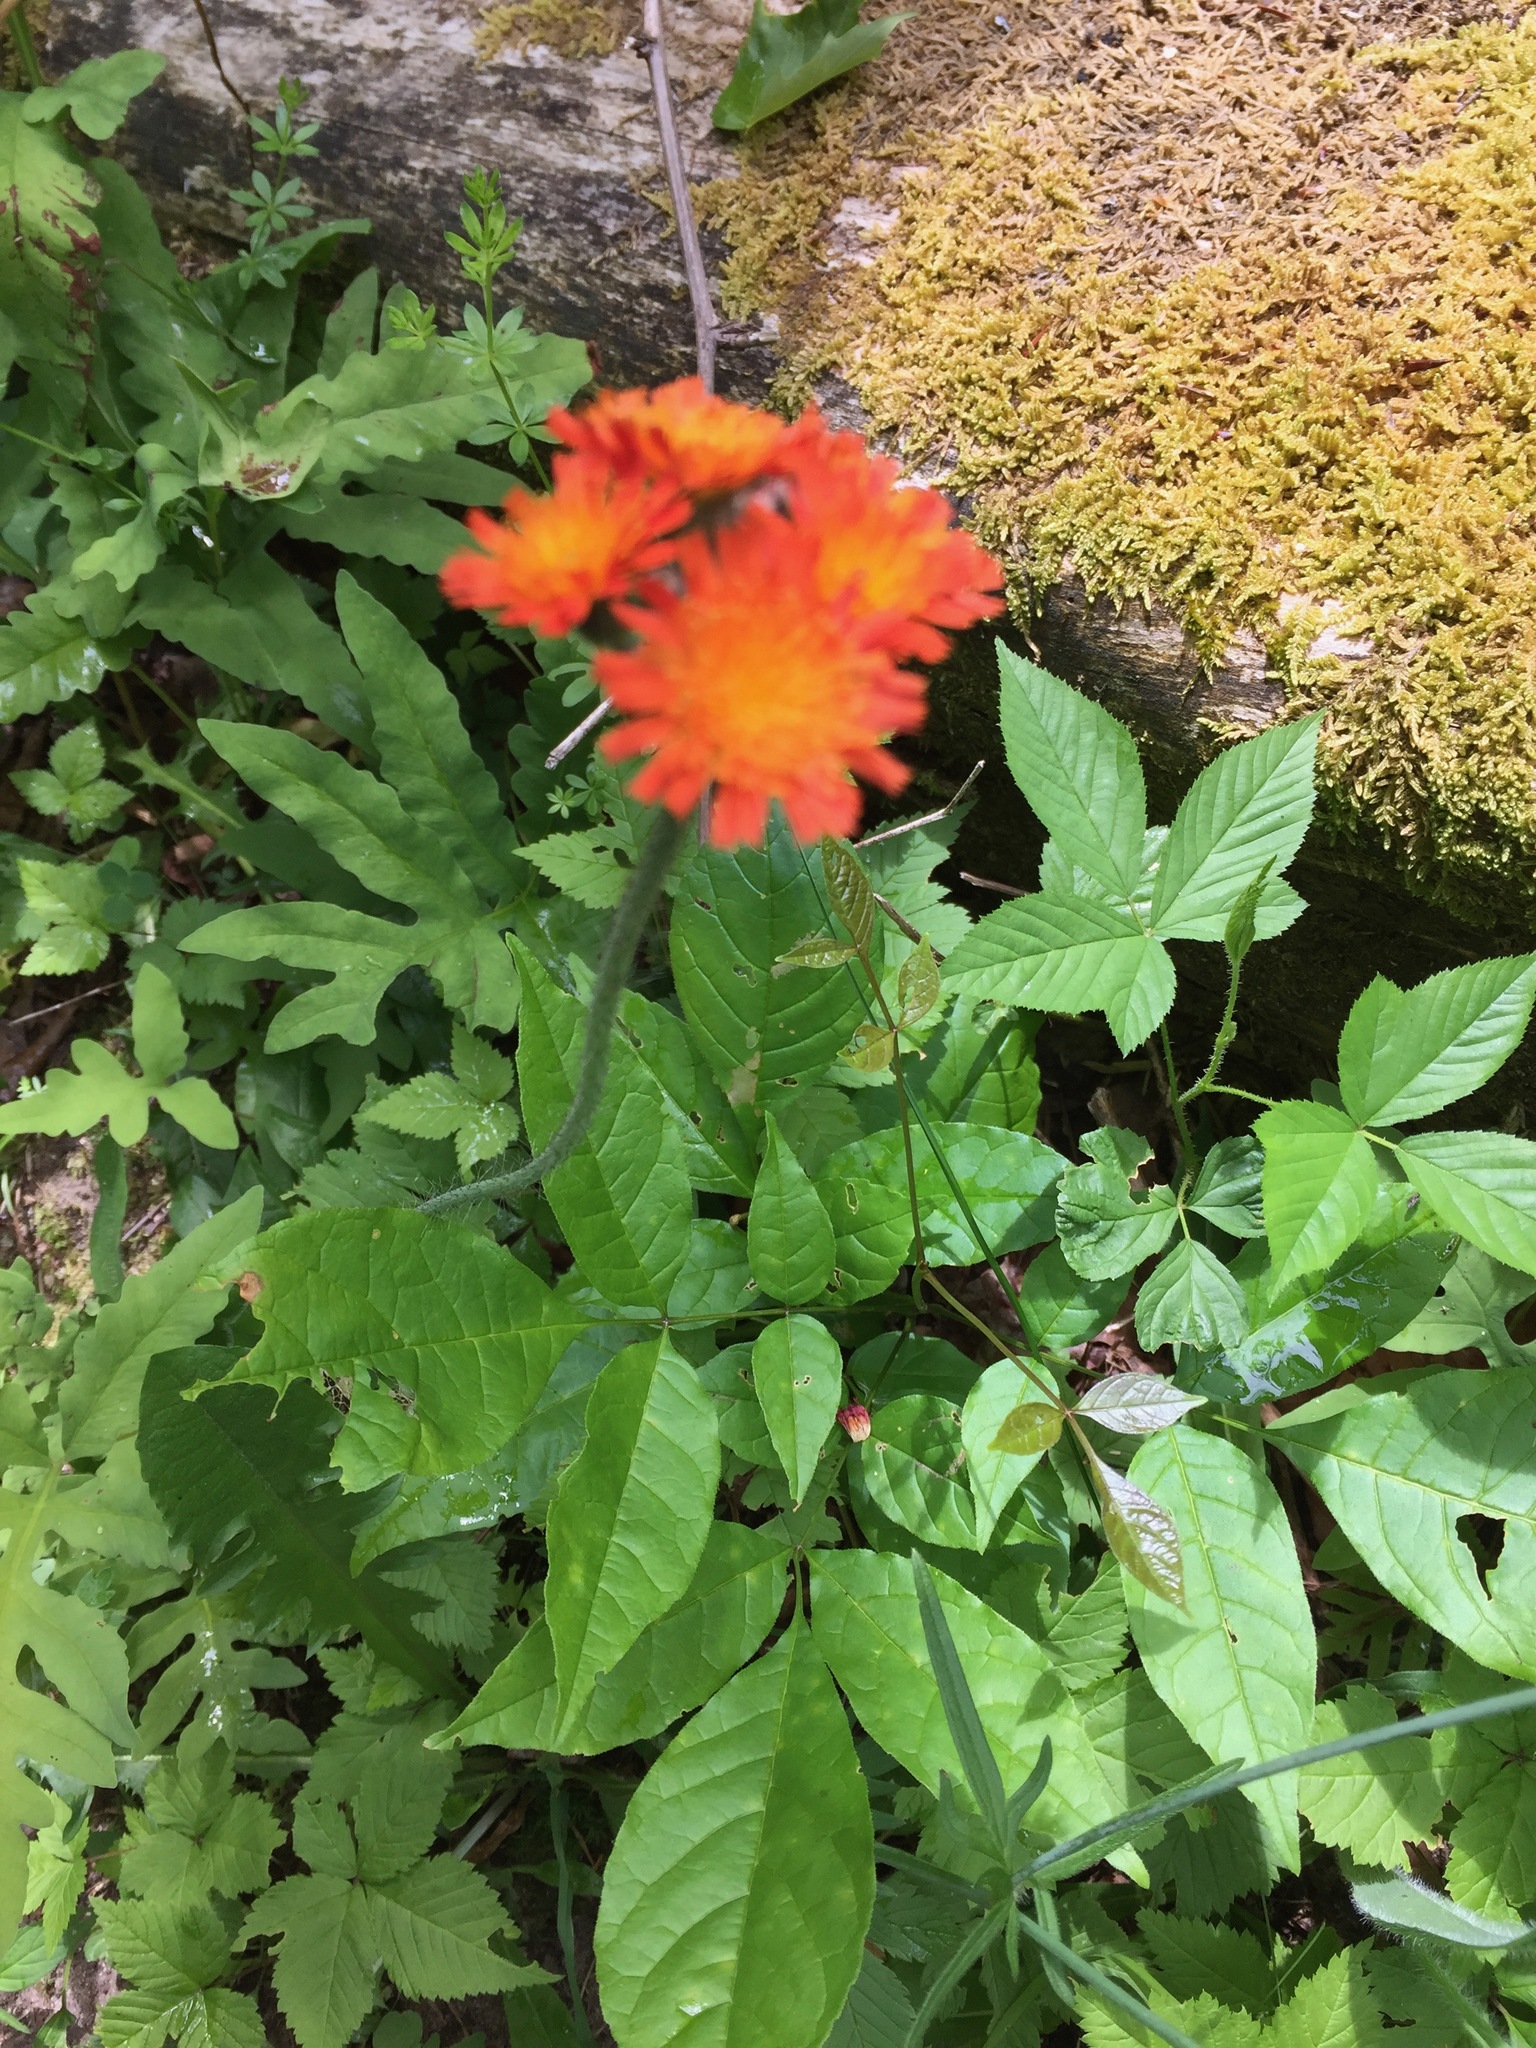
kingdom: Plantae
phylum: Tracheophyta
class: Magnoliopsida
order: Asterales
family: Asteraceae
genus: Pilosella
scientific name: Pilosella aurantiaca
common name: Fox-and-cubs
